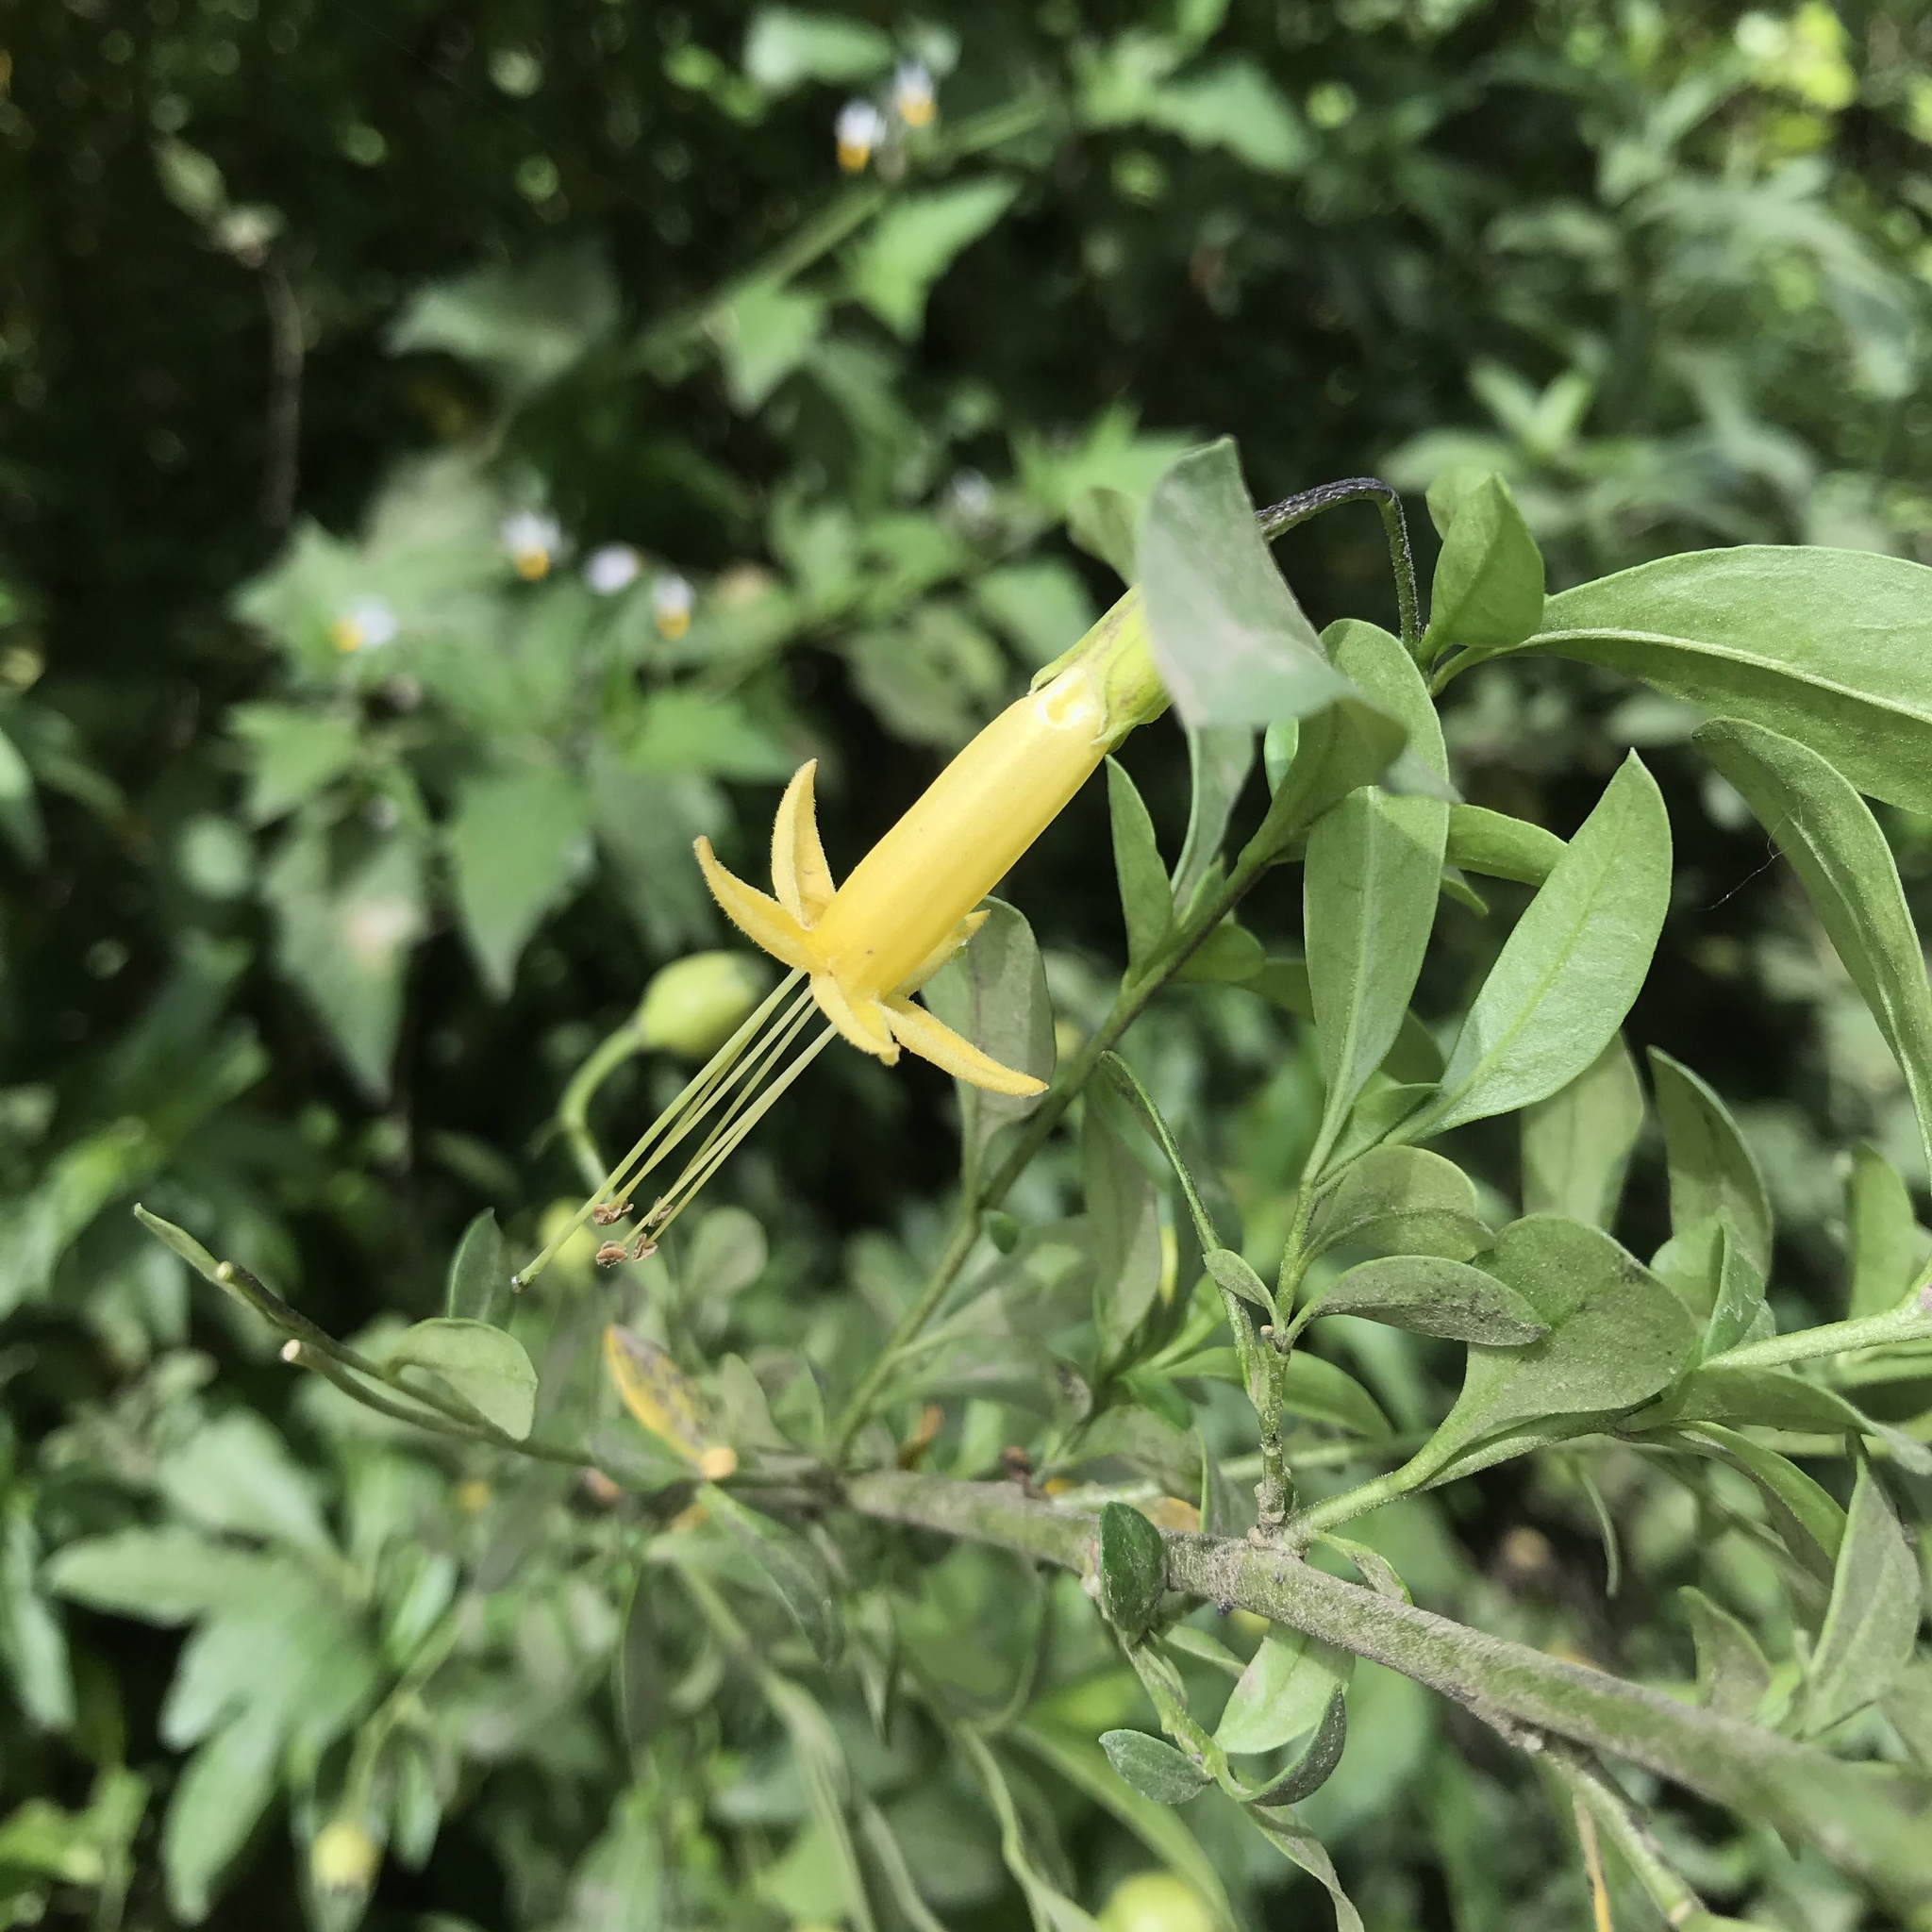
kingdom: Plantae
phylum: Tracheophyta
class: Magnoliopsida
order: Solanales
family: Solanaceae
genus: Vestia
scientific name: Vestia foetida
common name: Huevil
